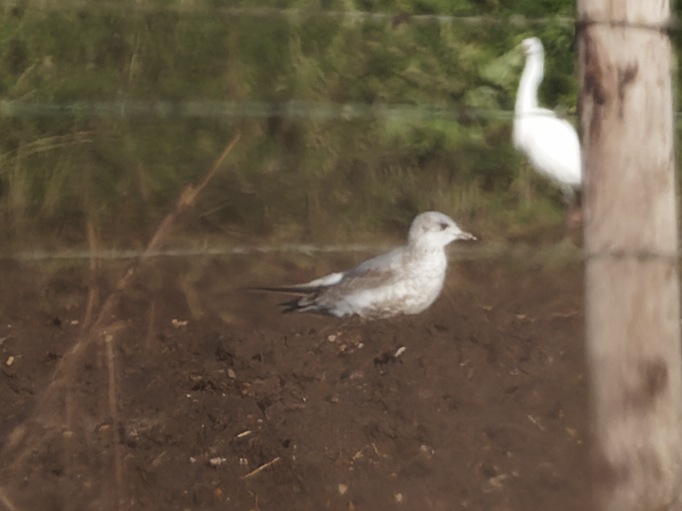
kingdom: Animalia
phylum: Chordata
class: Aves
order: Charadriiformes
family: Laridae
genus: Larus
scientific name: Larus canus
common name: Mew gull
